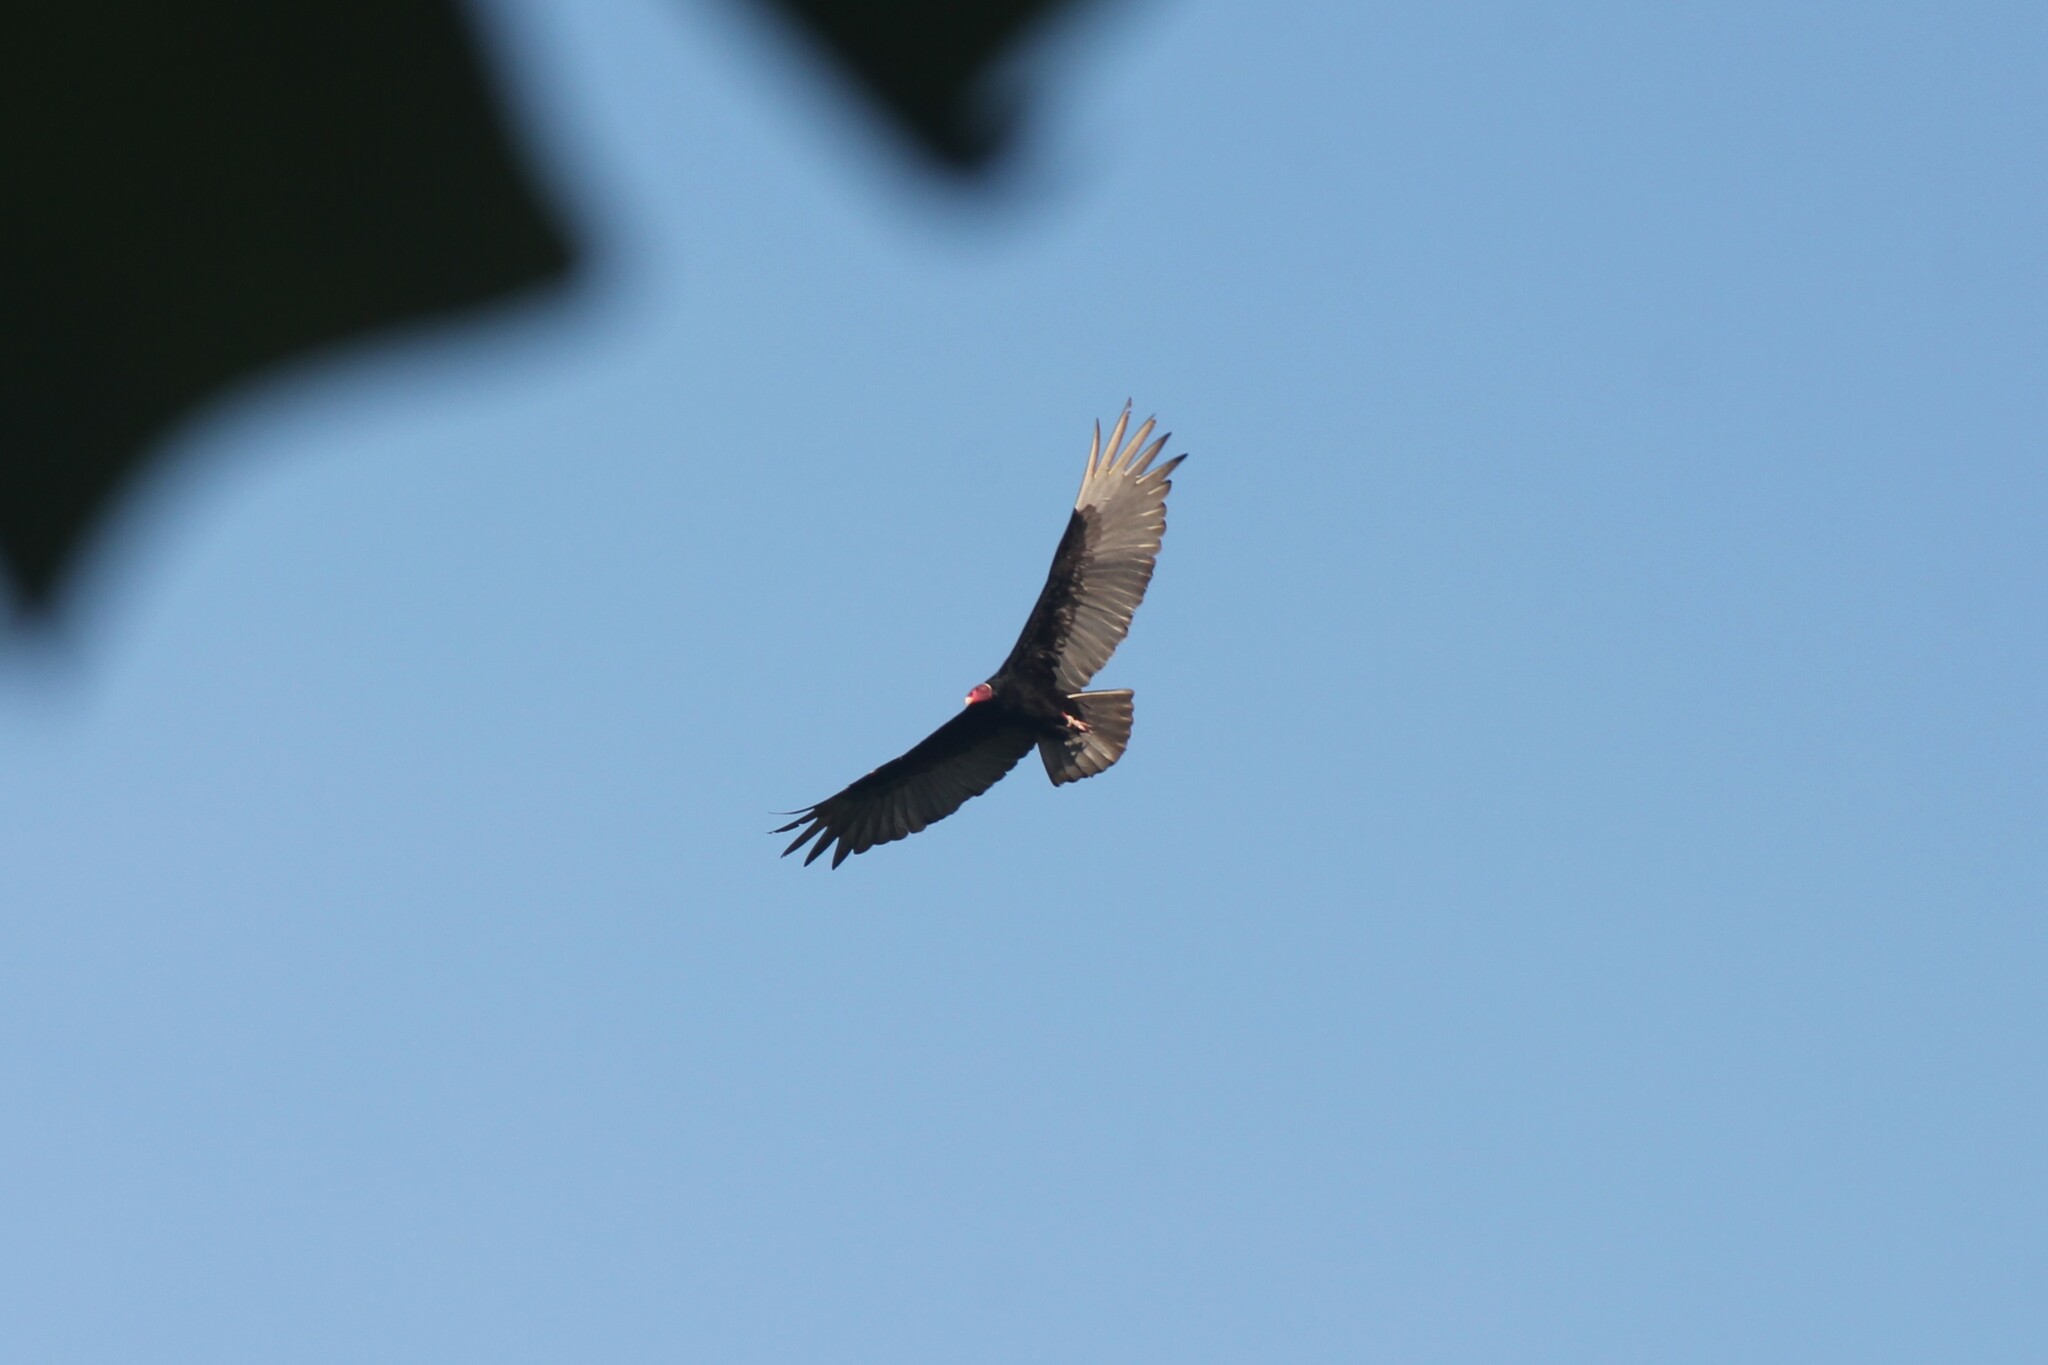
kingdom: Animalia
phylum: Chordata
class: Aves
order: Accipitriformes
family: Cathartidae
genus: Cathartes
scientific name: Cathartes aura
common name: Turkey vulture
